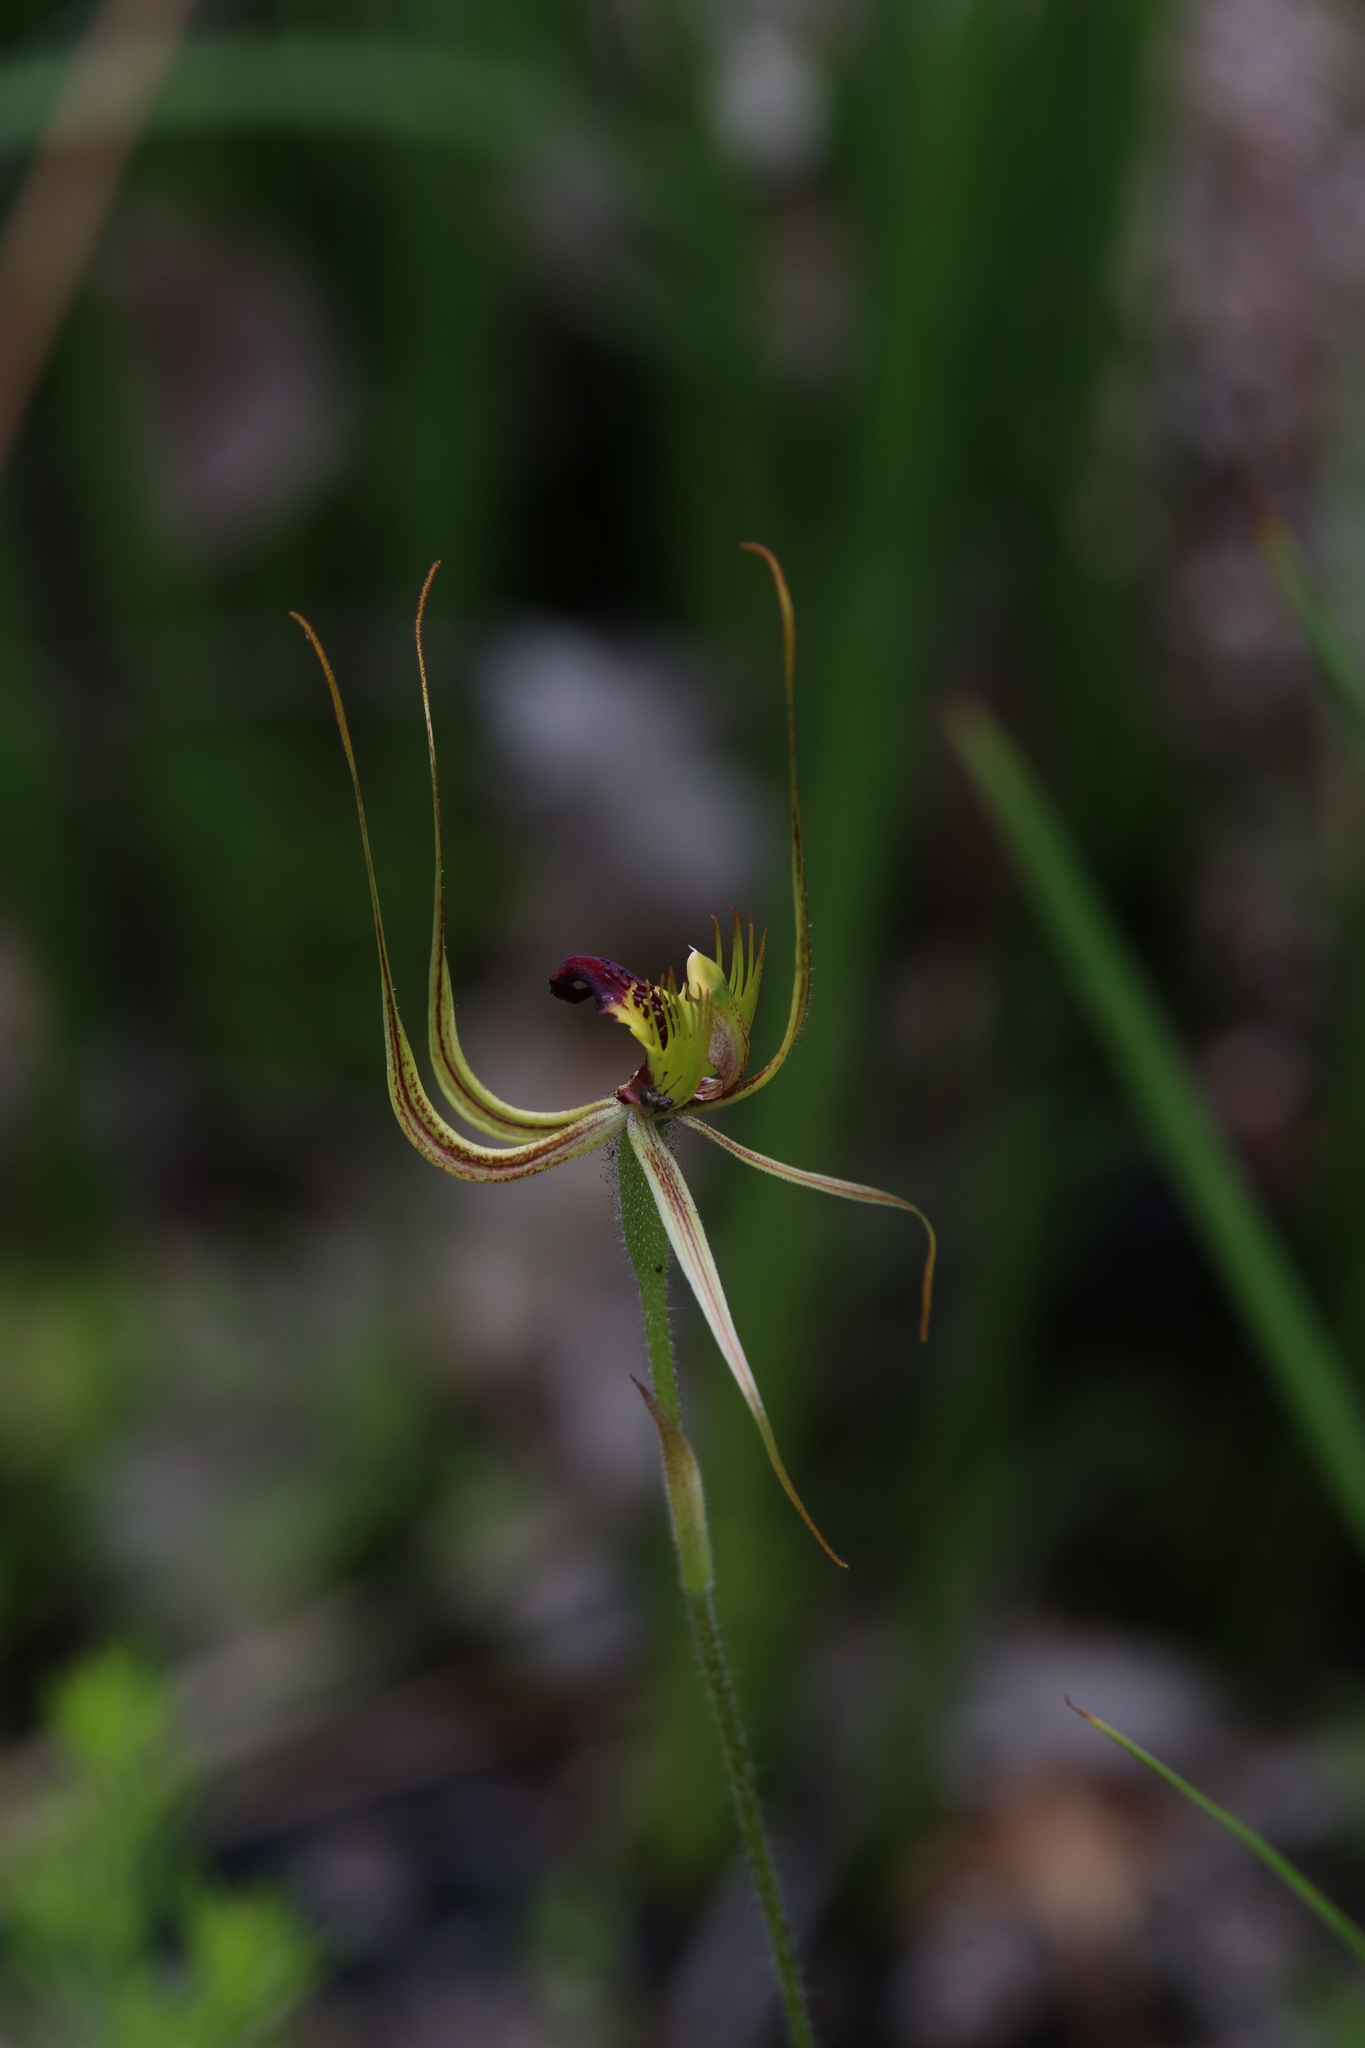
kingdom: Plantae
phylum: Tracheophyta
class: Liliopsida
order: Asparagales
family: Orchidaceae
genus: Caladenia
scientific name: Caladenia attingens
